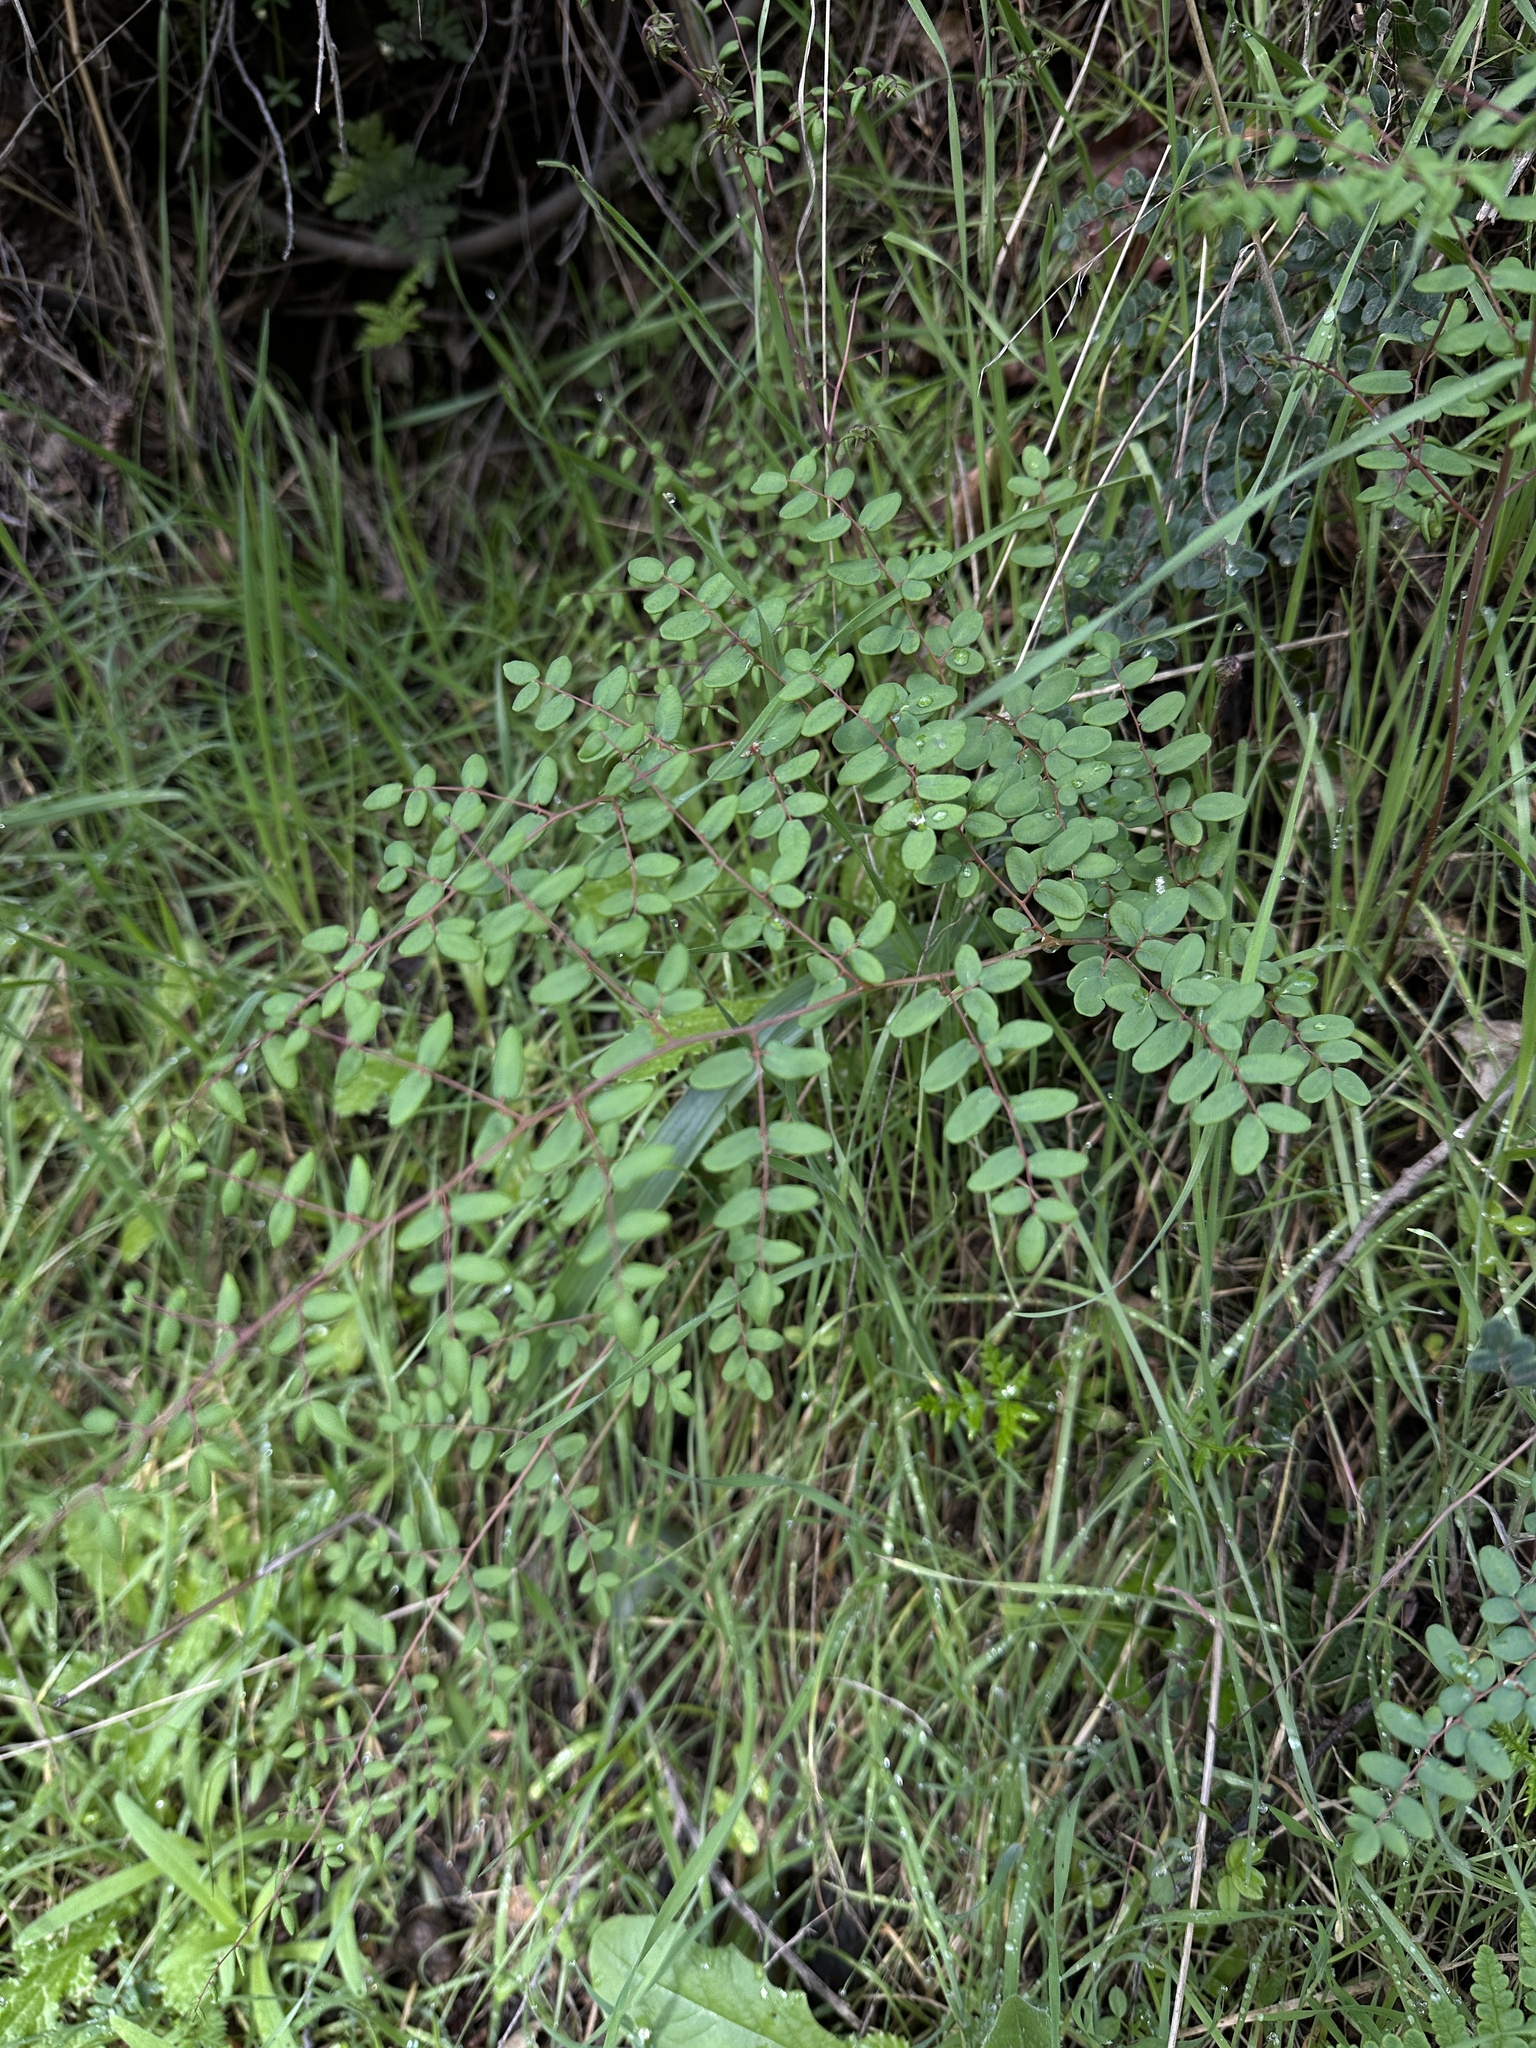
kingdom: Plantae
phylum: Tracheophyta
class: Polypodiopsida
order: Polypodiales
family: Pteridaceae
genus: Pellaea
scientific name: Pellaea andromedifolia
